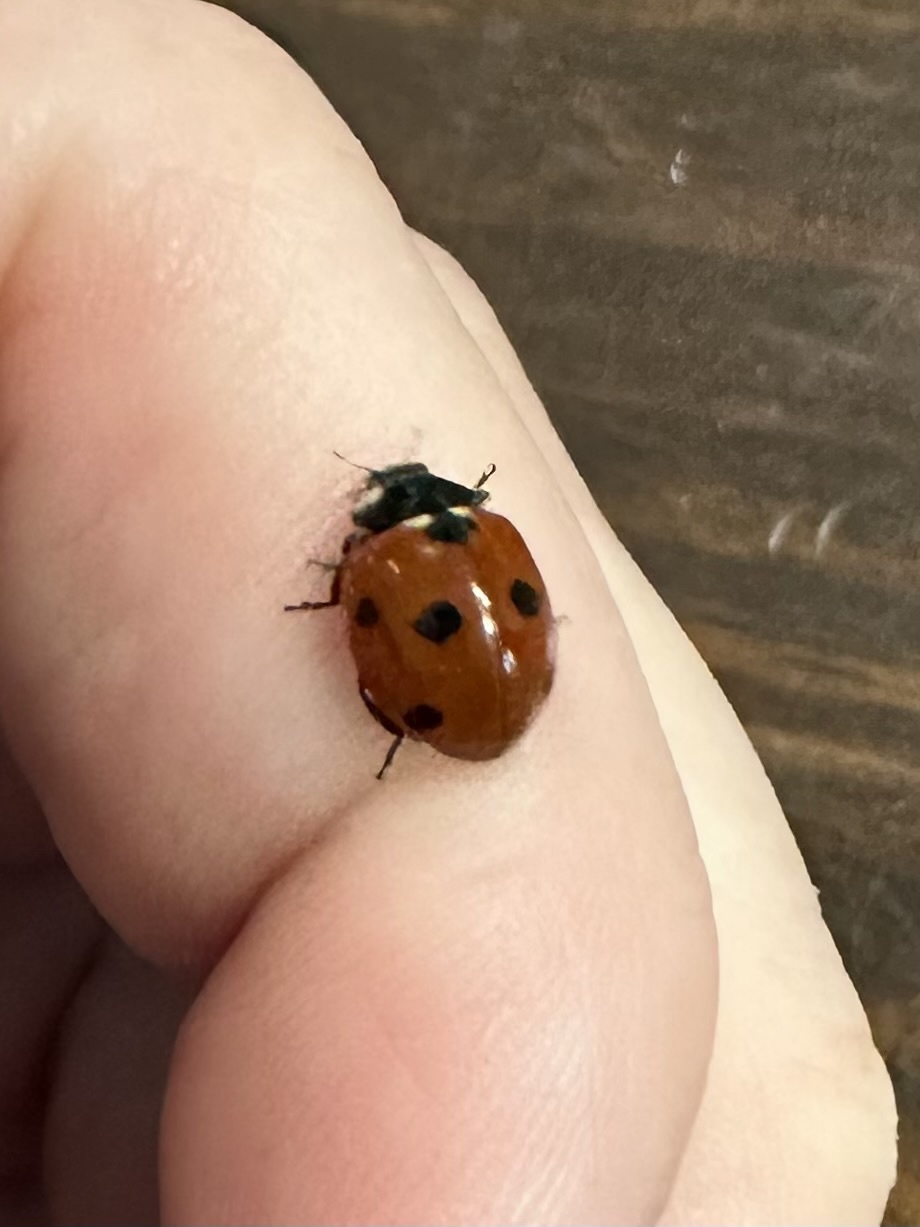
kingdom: Animalia
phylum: Arthropoda
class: Insecta
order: Coleoptera
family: Coccinellidae
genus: Coccinella
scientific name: Coccinella septempunctata
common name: Sevenspotted lady beetle
